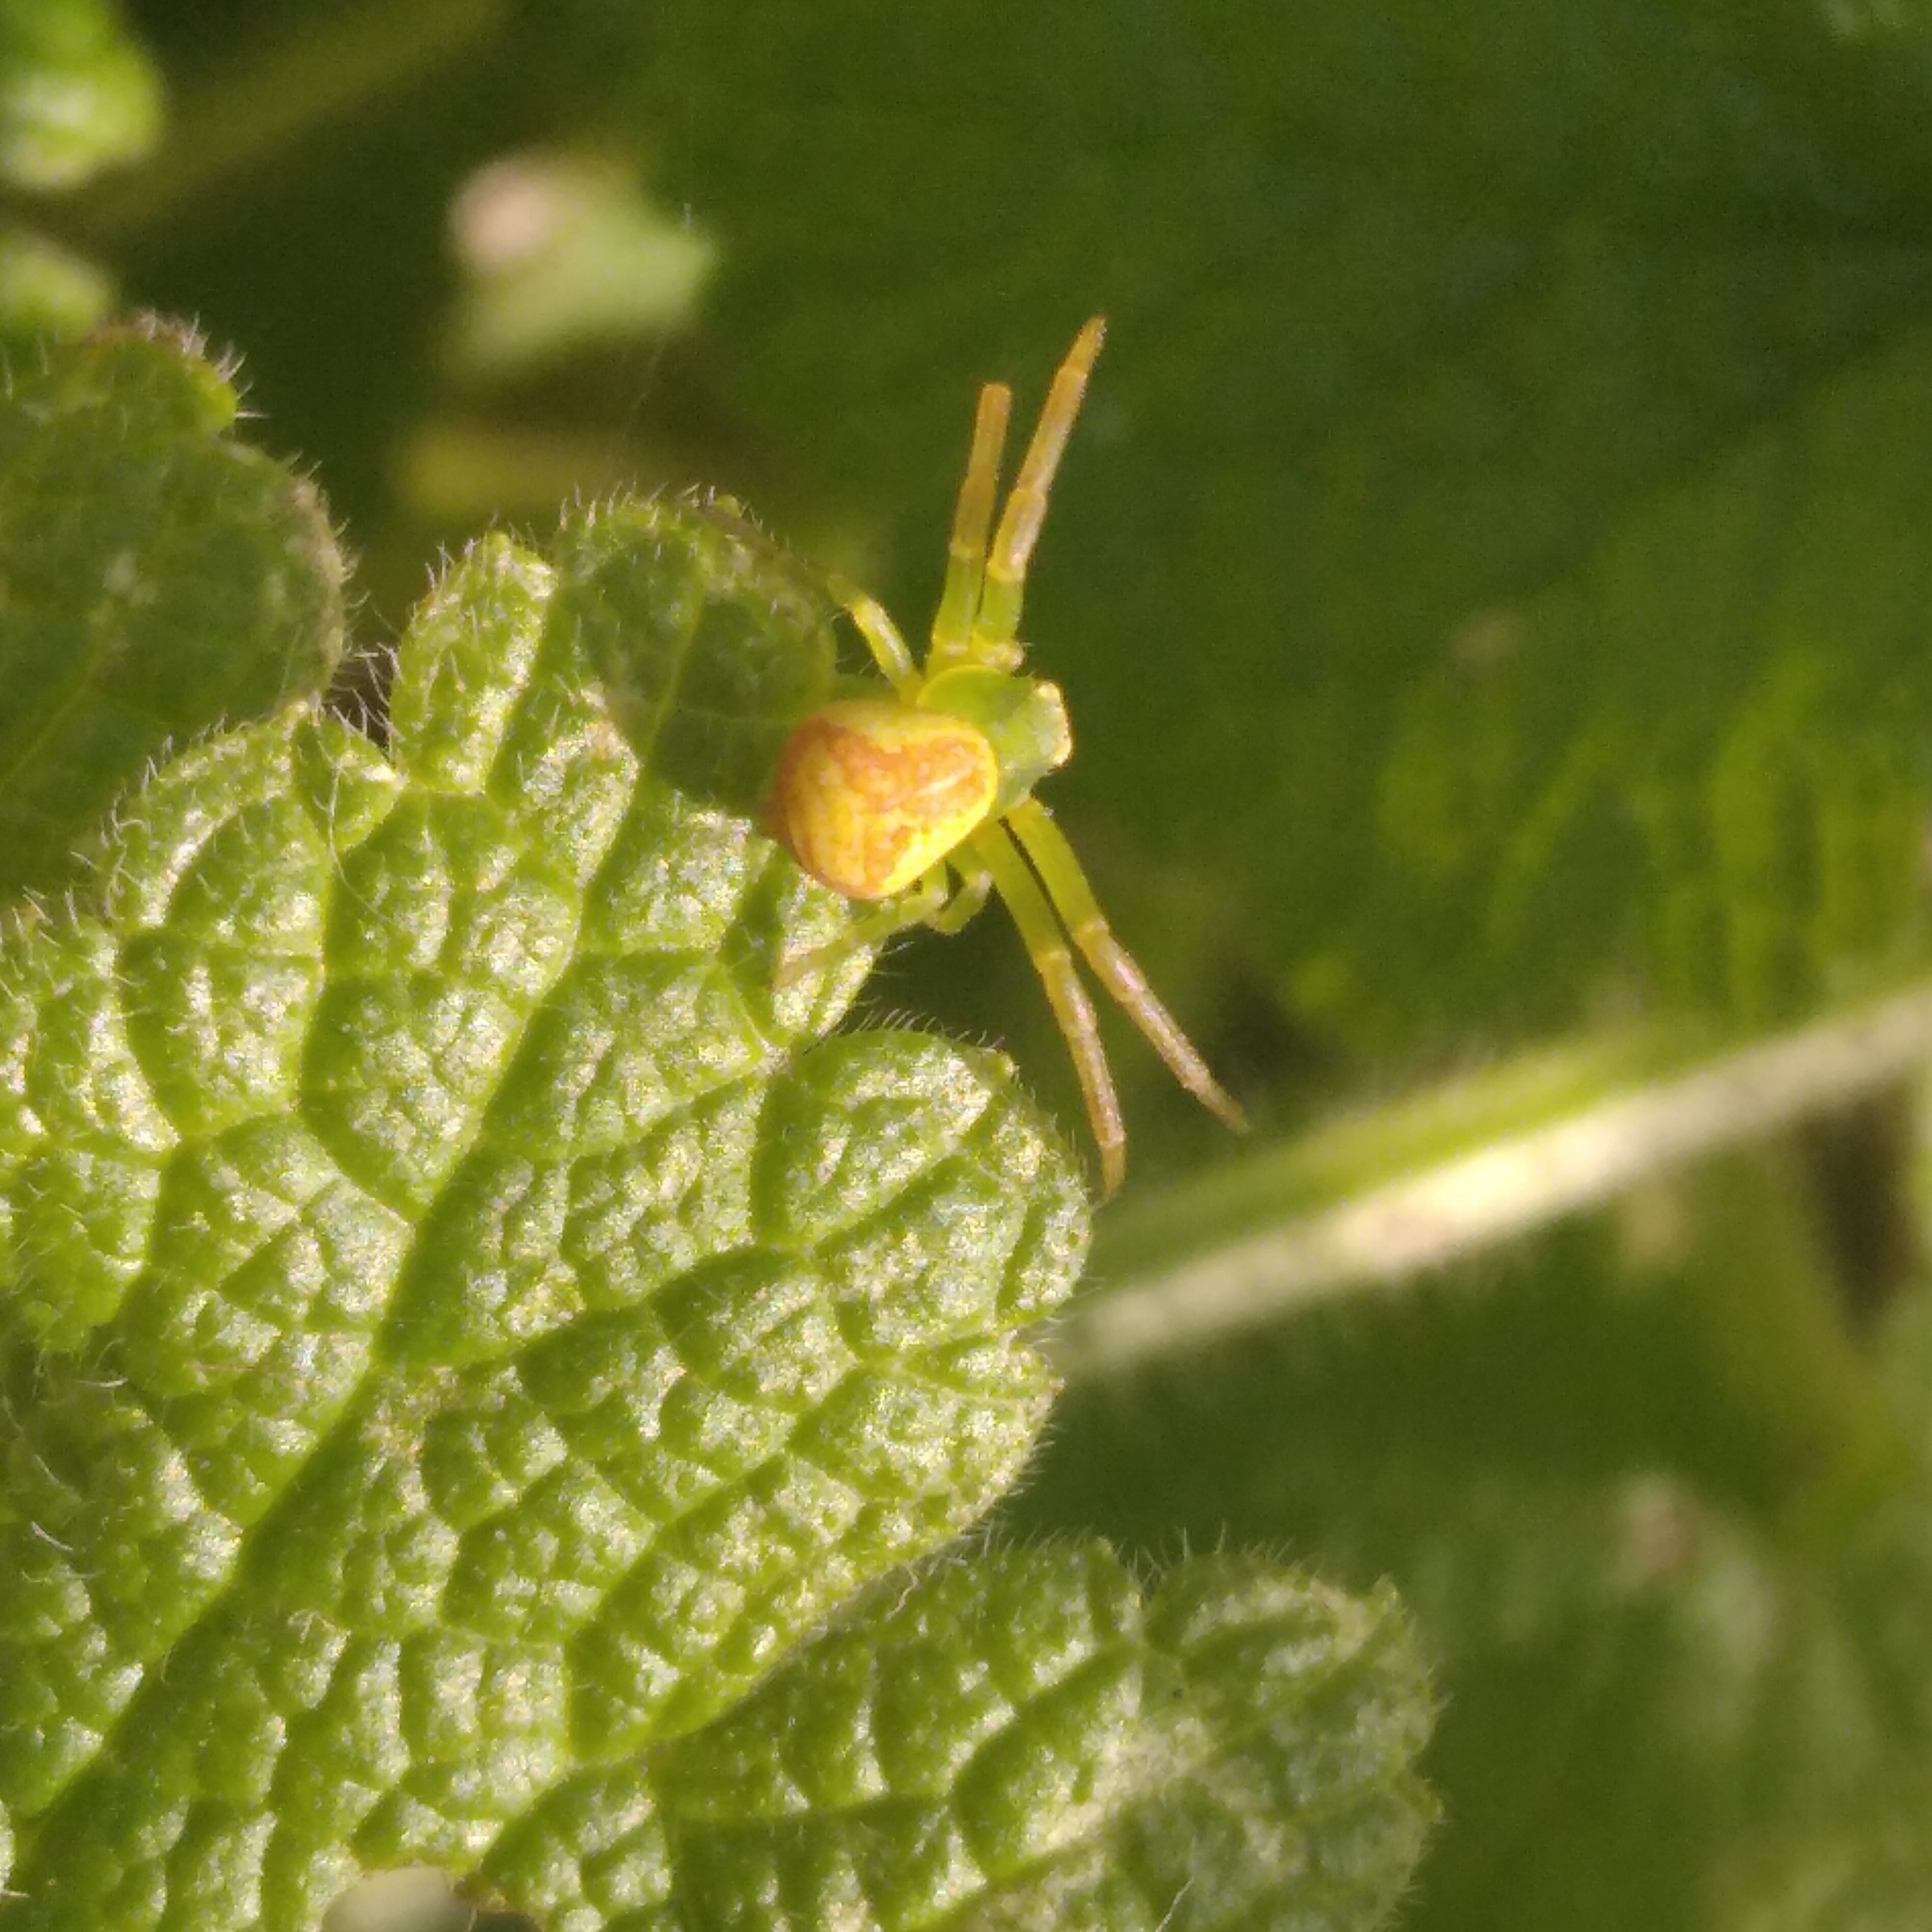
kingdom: Animalia
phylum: Arthropoda
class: Arachnida
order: Araneae
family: Thomisidae
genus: Ebrechtella
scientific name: Ebrechtella tricuspidata
